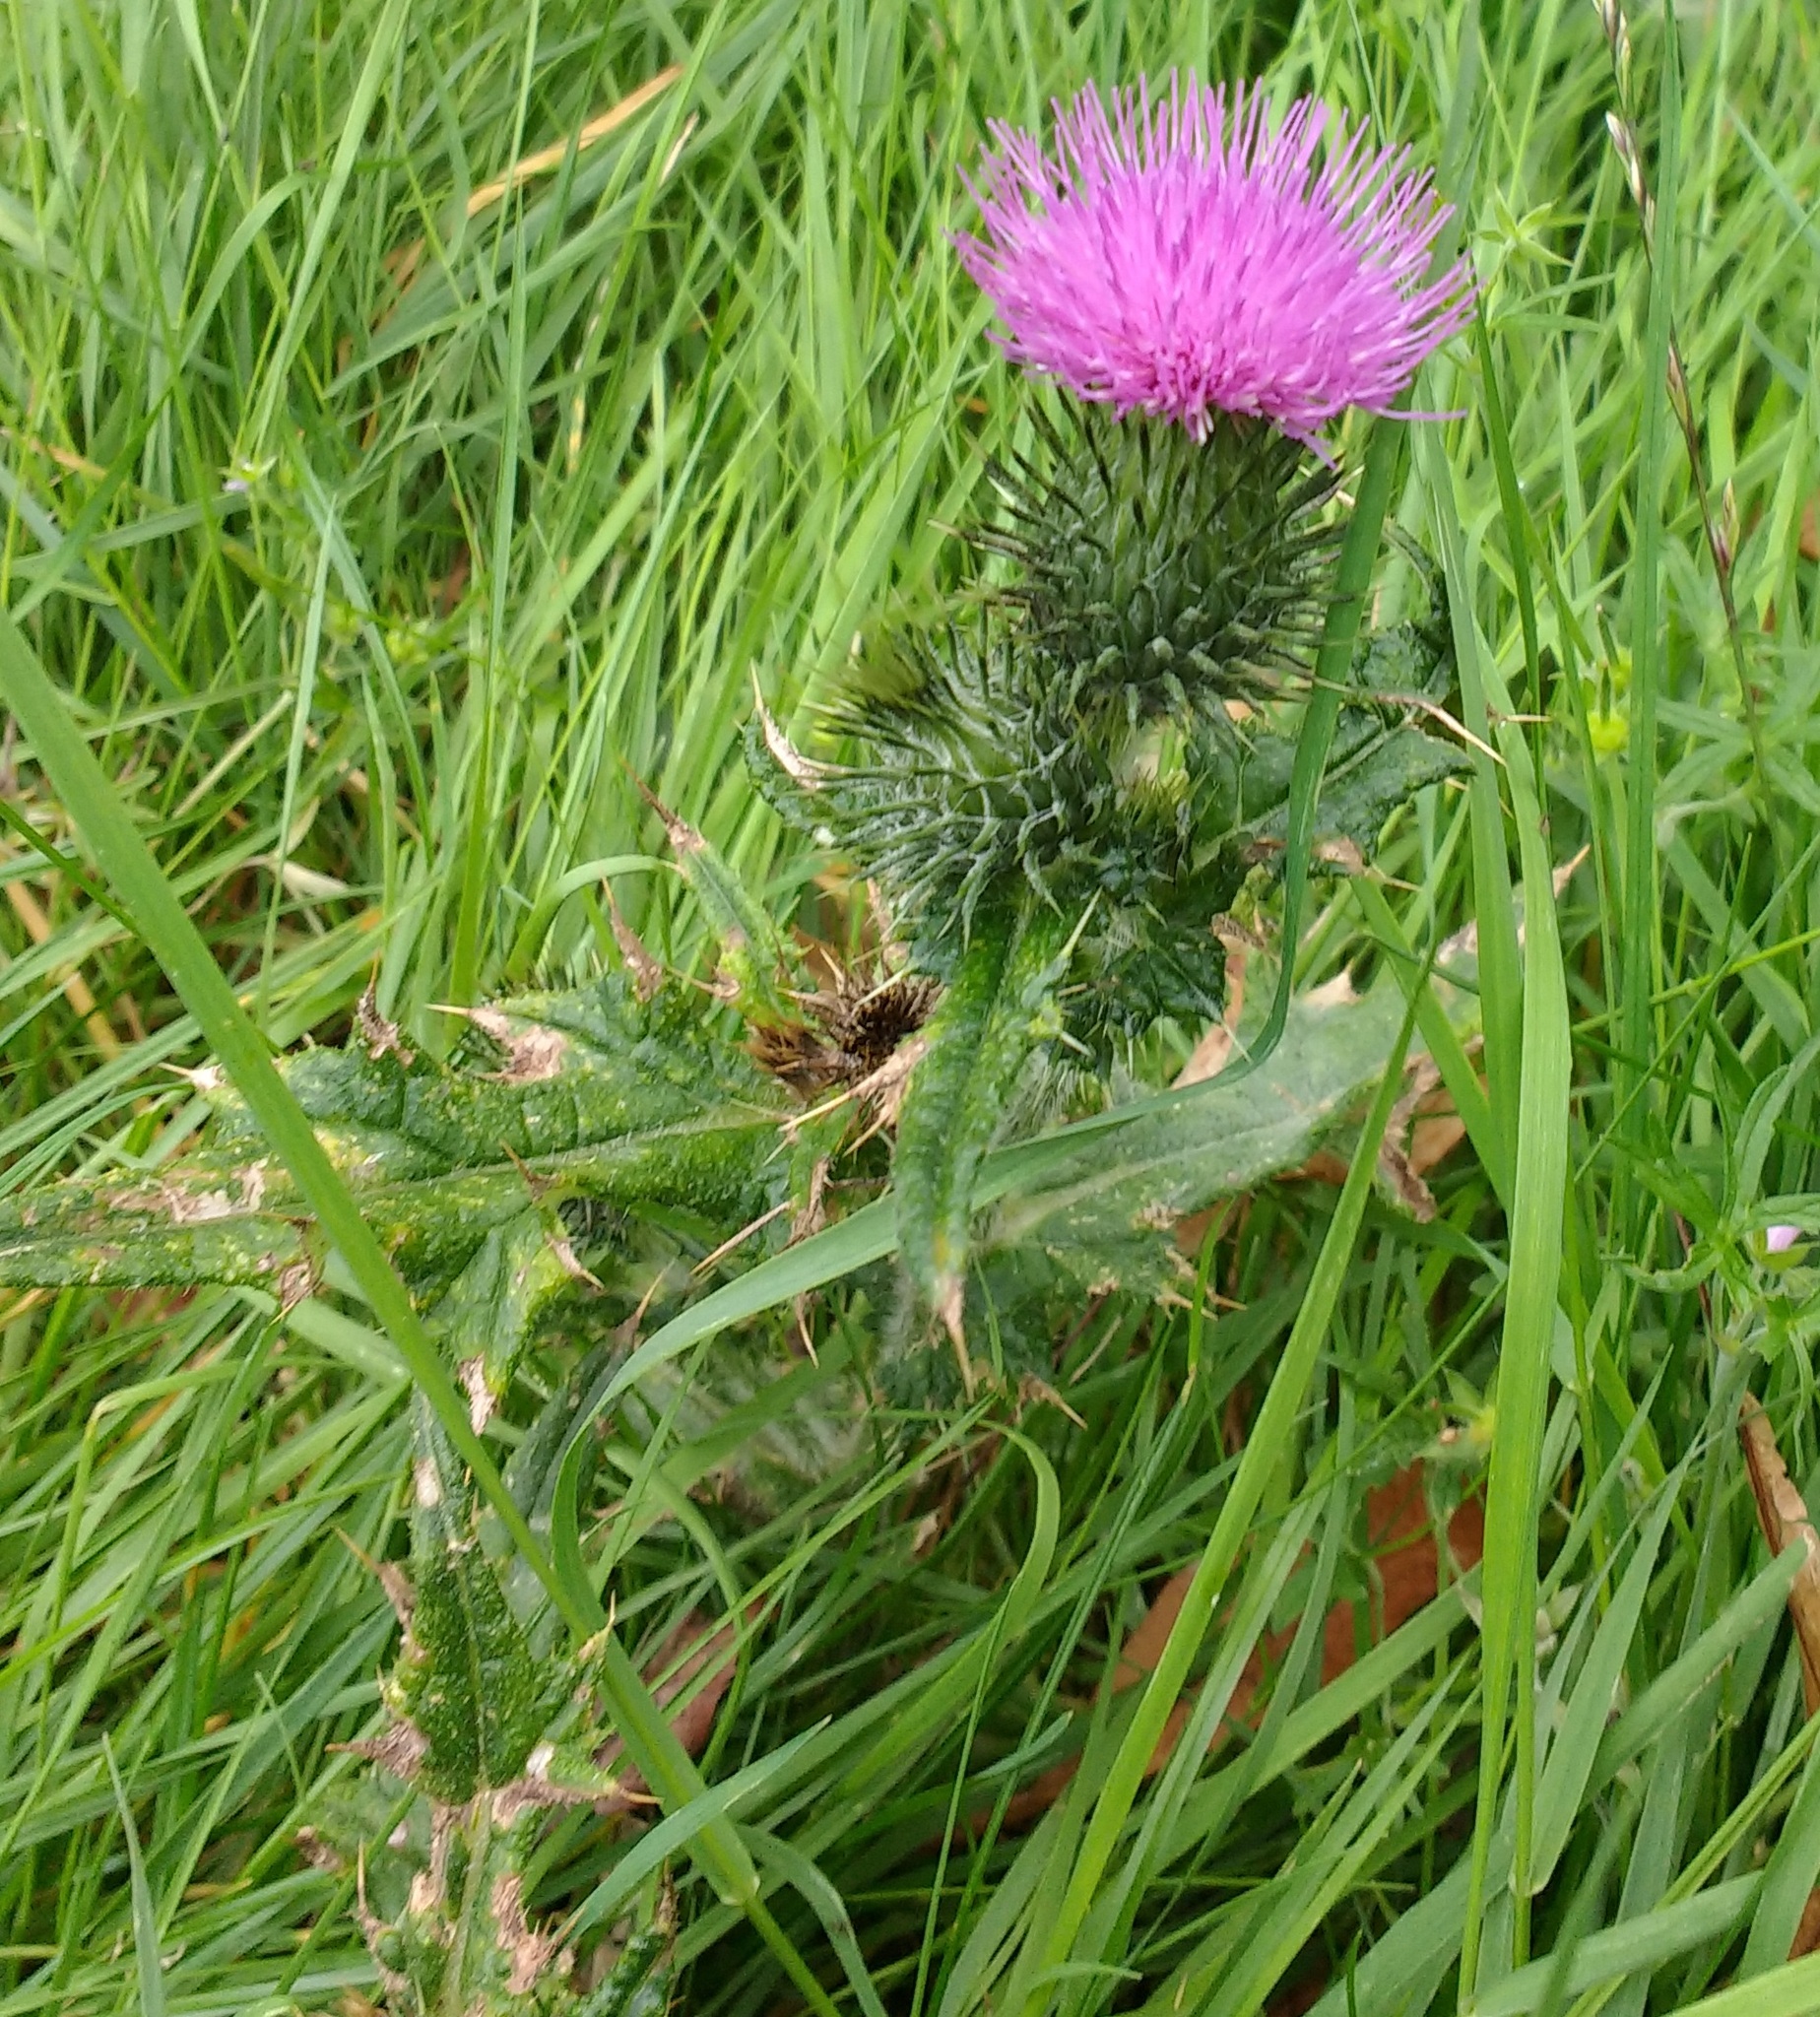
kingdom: Plantae
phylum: Tracheophyta
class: Magnoliopsida
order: Asterales
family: Asteraceae
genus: Cirsium
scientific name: Cirsium vulgare
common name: Bull thistle
